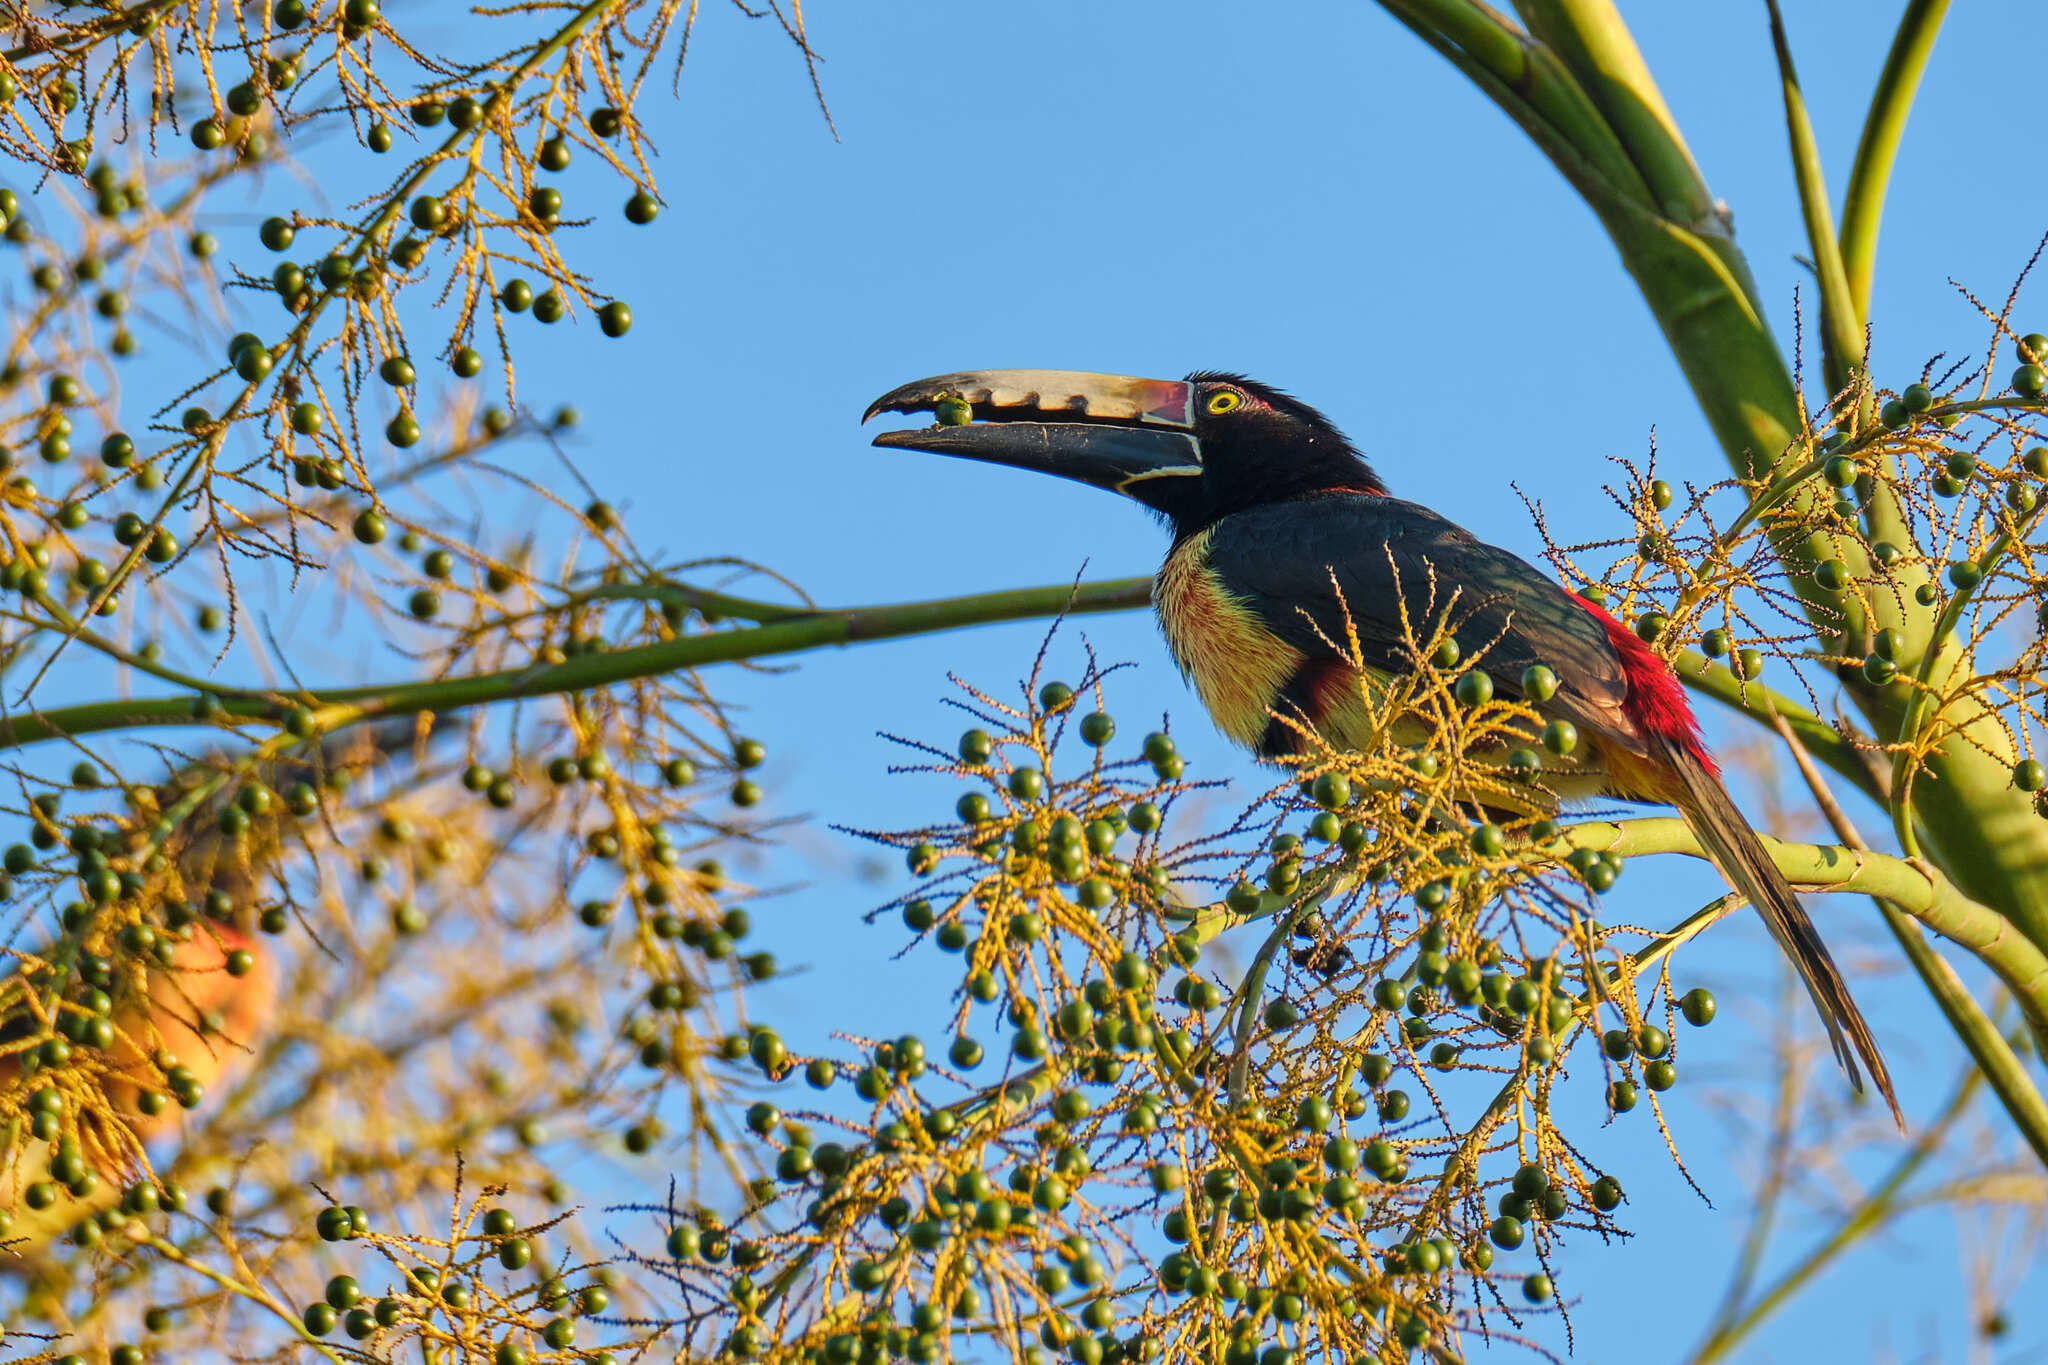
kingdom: Animalia
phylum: Chordata
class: Aves
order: Piciformes
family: Ramphastidae
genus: Pteroglossus
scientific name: Pteroglossus torquatus
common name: Collared aracari
